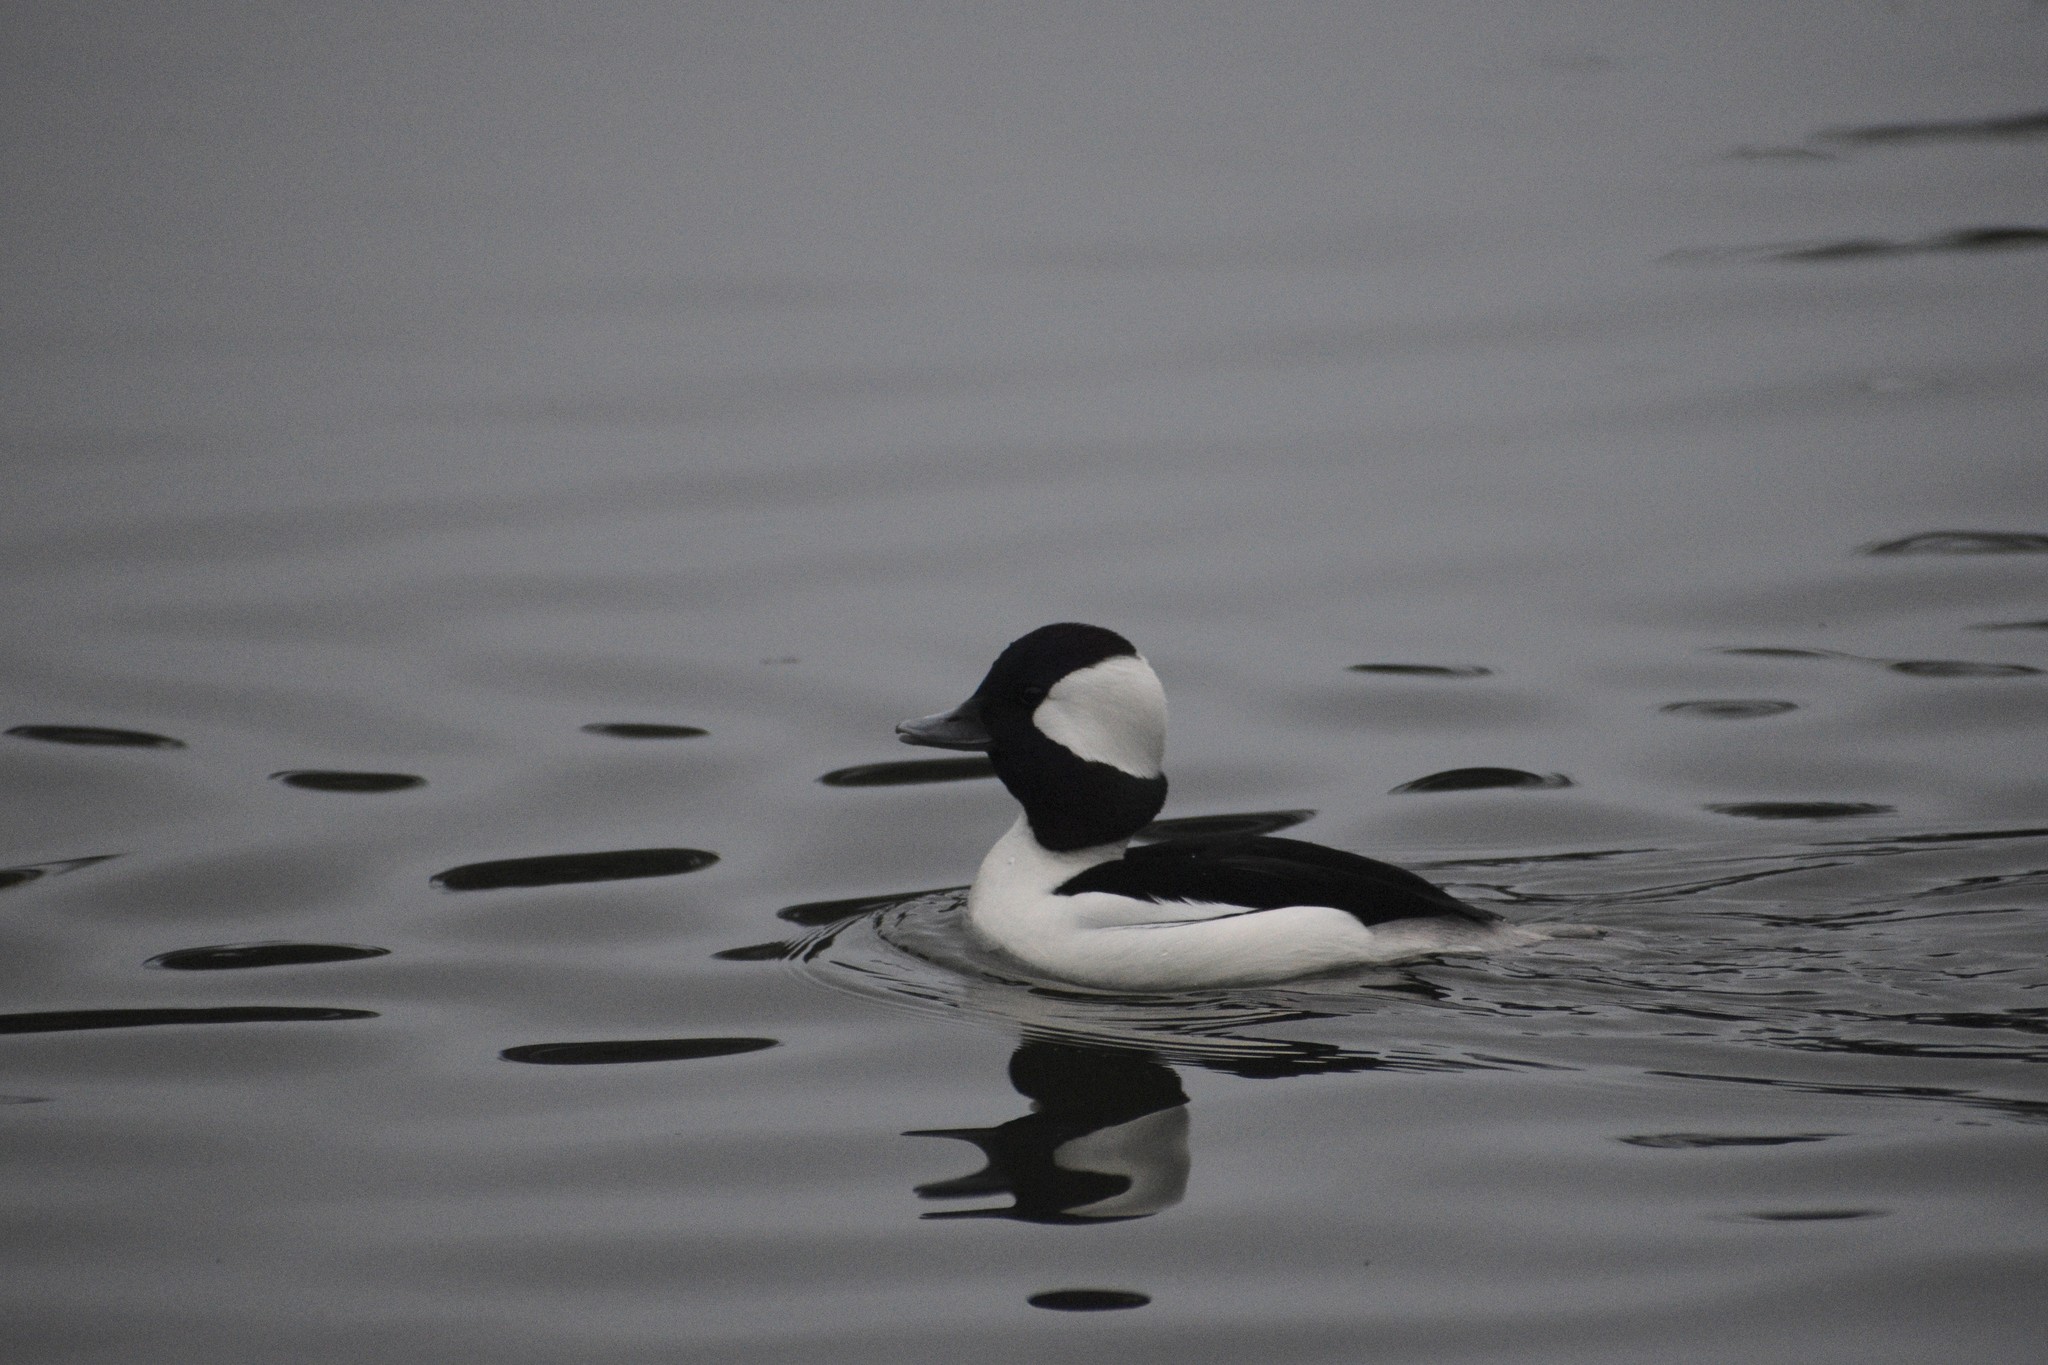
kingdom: Animalia
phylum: Chordata
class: Aves
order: Anseriformes
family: Anatidae
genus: Bucephala
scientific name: Bucephala albeola
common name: Bufflehead
